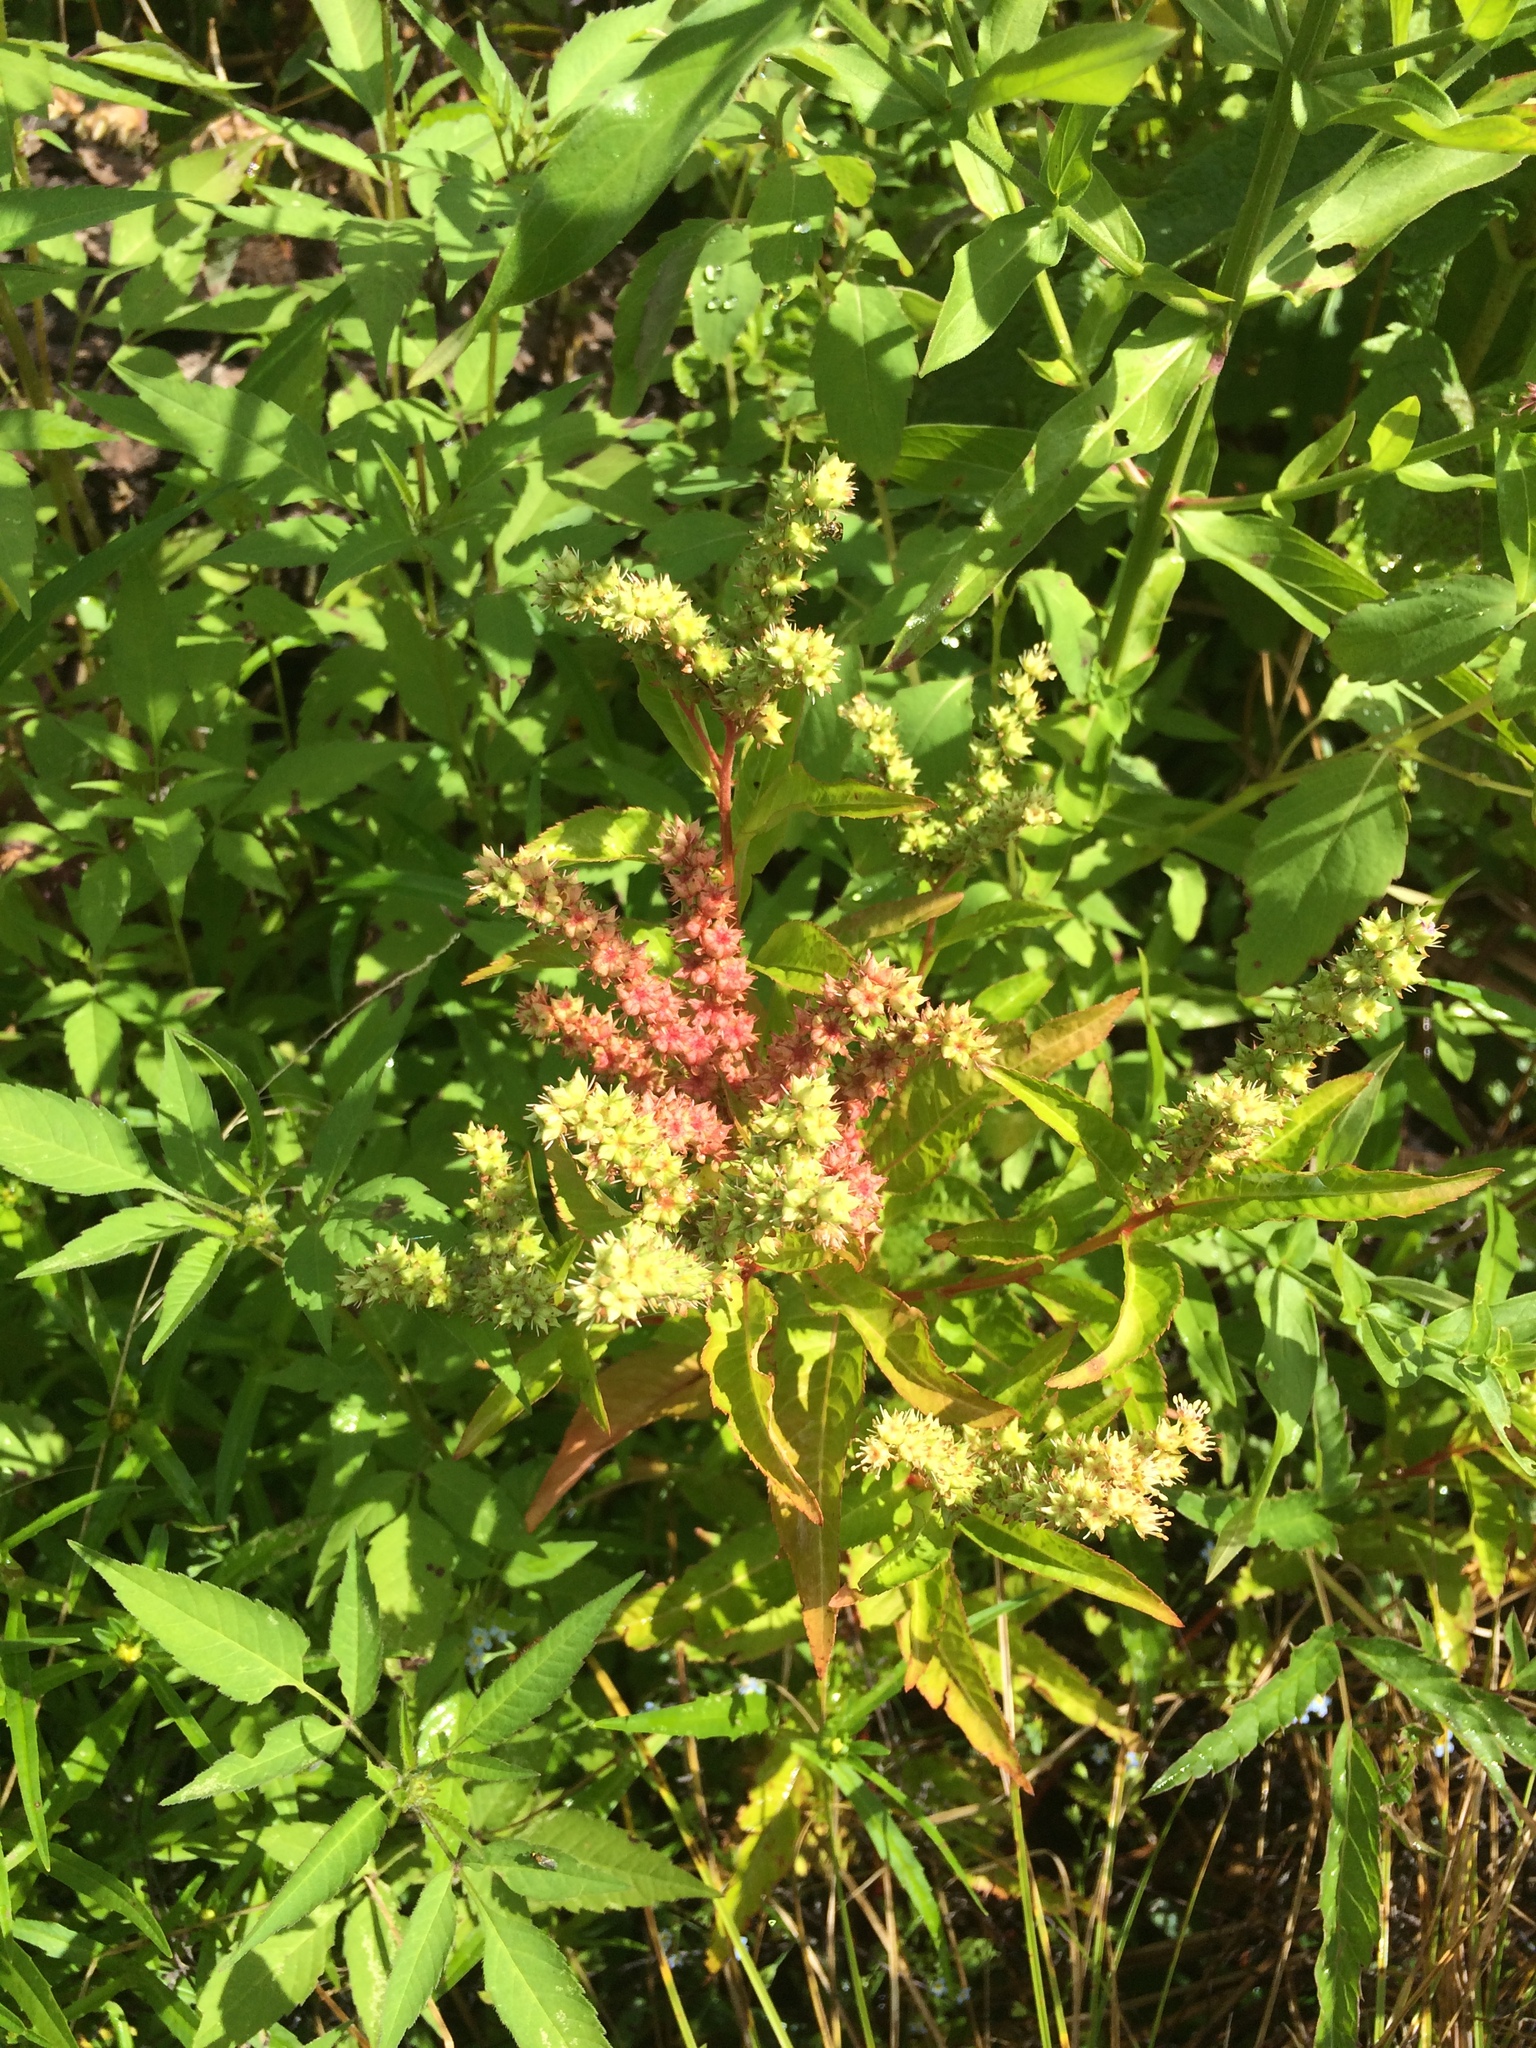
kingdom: Plantae
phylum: Tracheophyta
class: Magnoliopsida
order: Saxifragales
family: Penthoraceae
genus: Penthorum
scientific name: Penthorum sedoides
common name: Ditch stonecrop
